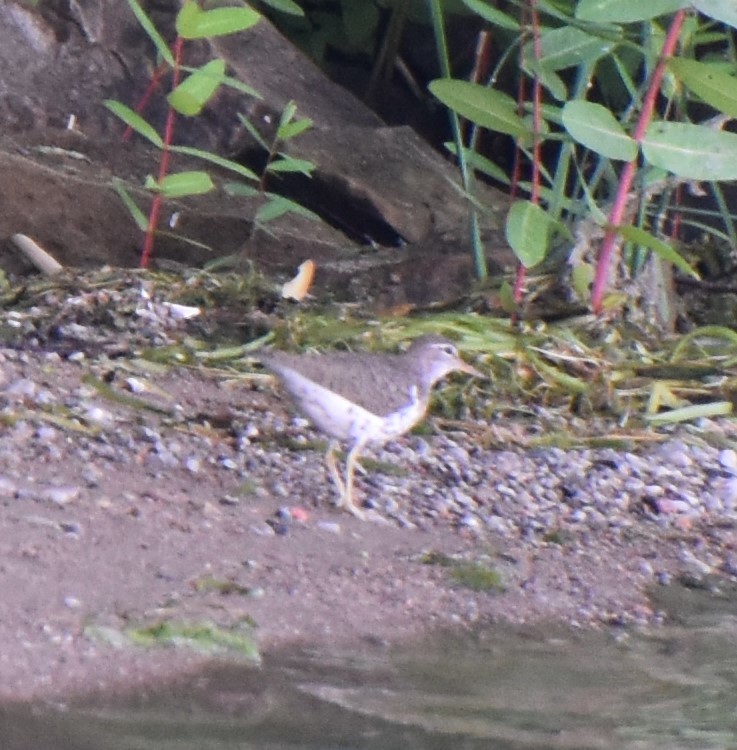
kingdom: Animalia
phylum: Chordata
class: Aves
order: Charadriiformes
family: Scolopacidae
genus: Actitis
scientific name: Actitis macularius
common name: Spotted sandpiper
